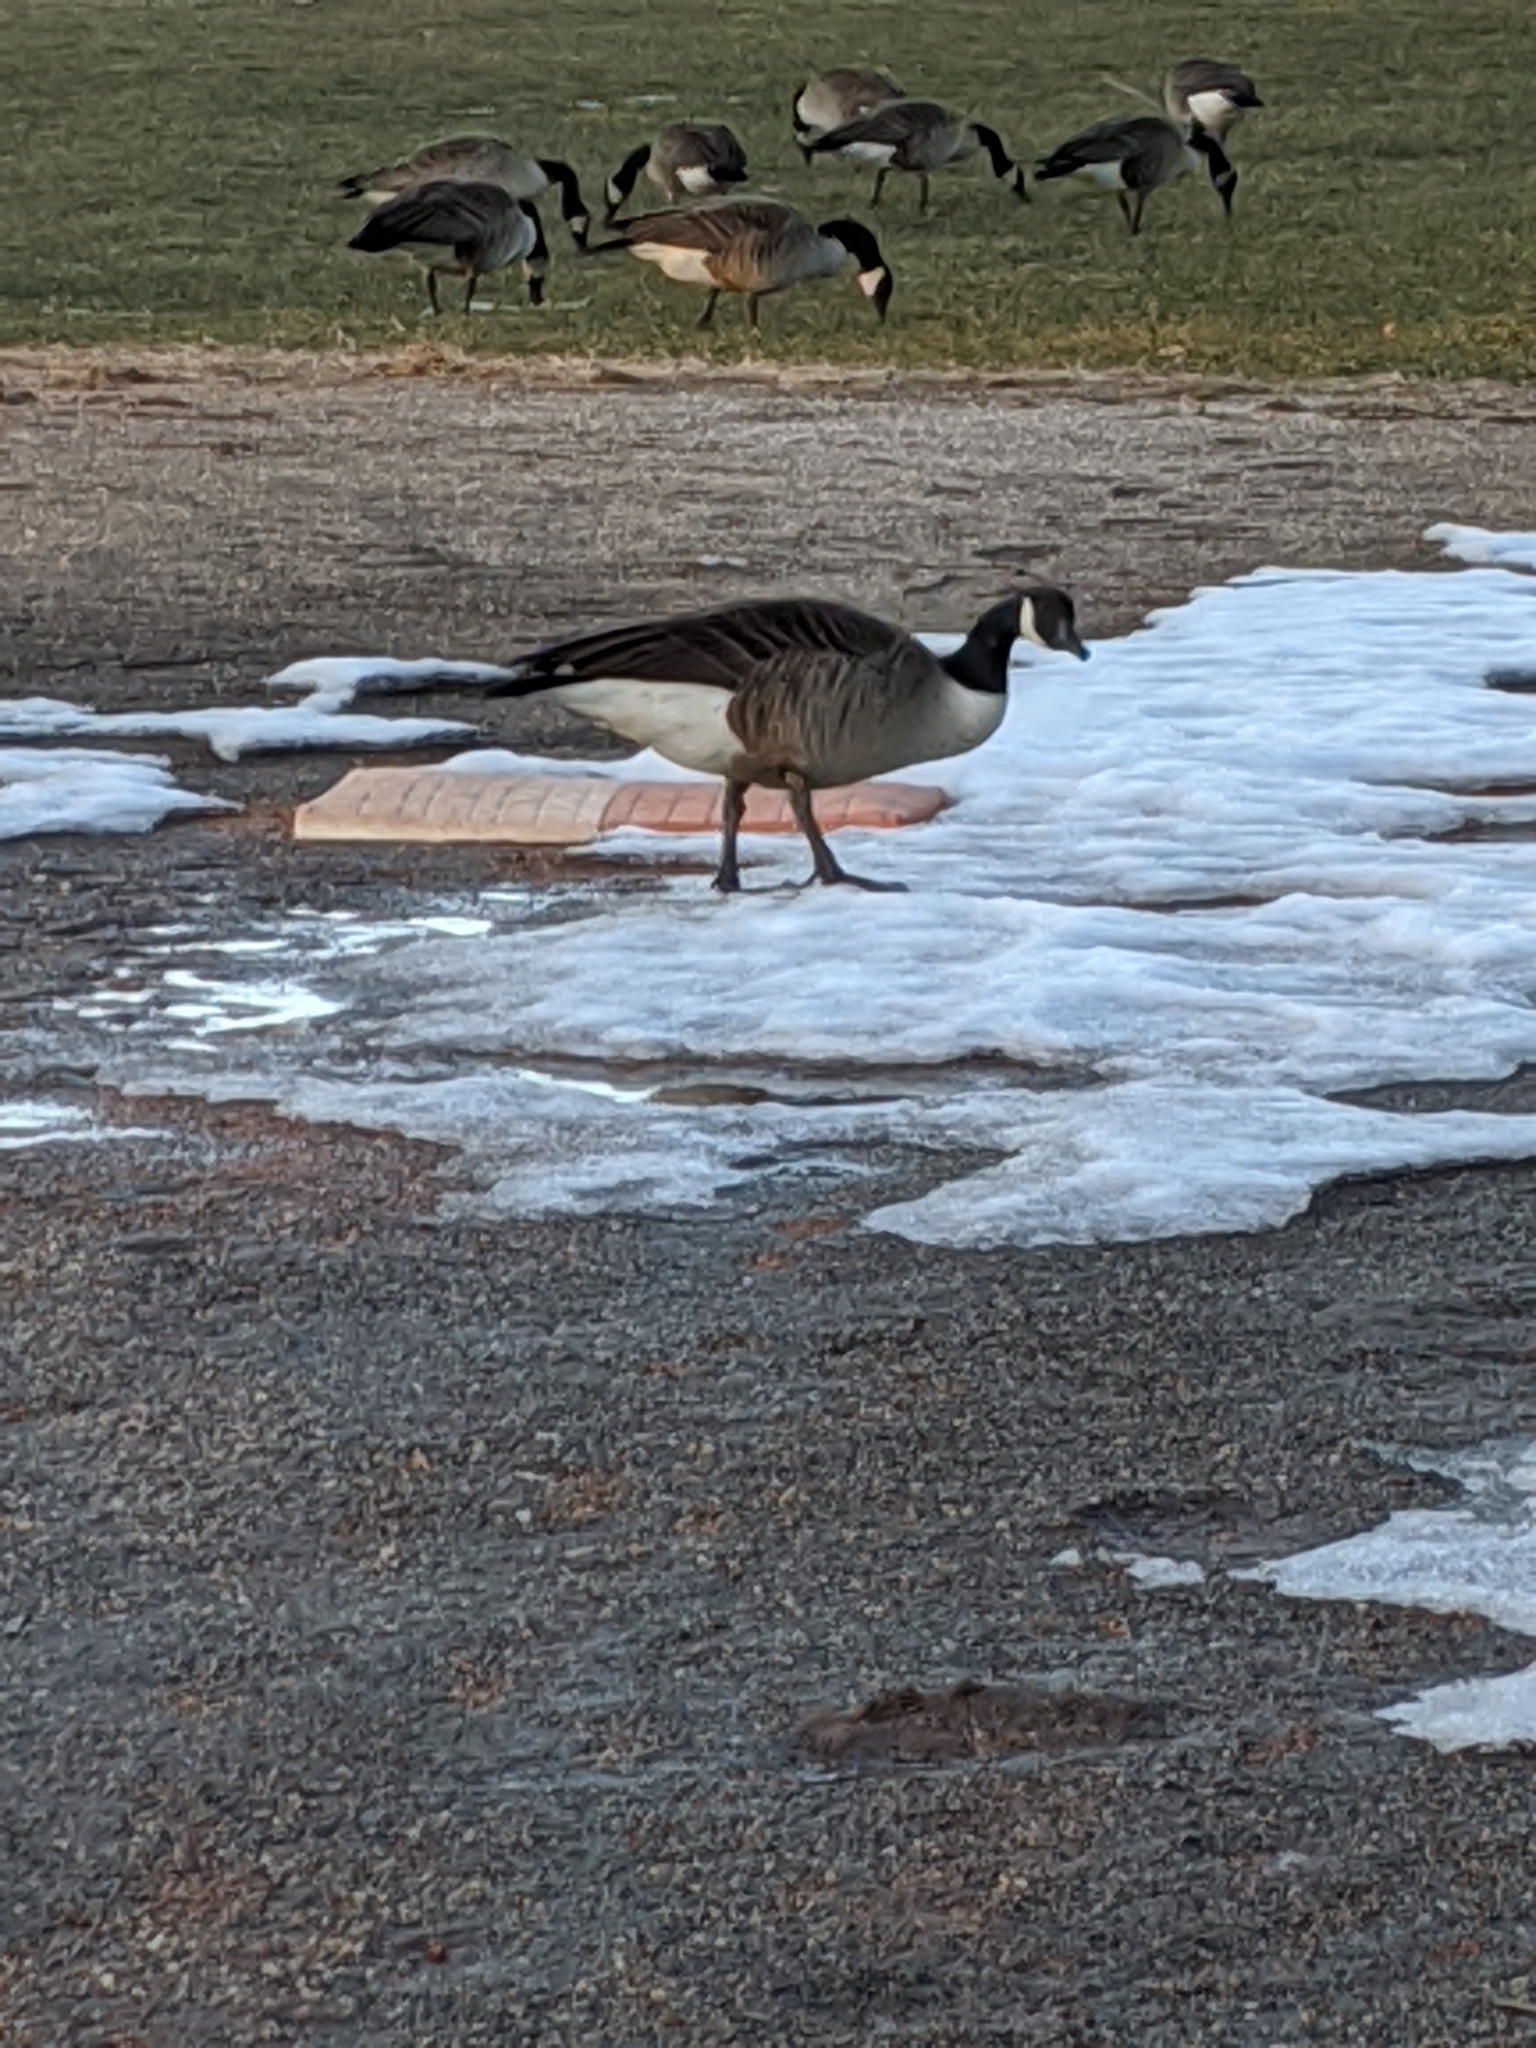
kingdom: Animalia
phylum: Chordata
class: Aves
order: Anseriformes
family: Anatidae
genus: Branta
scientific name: Branta canadensis
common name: Canada goose
